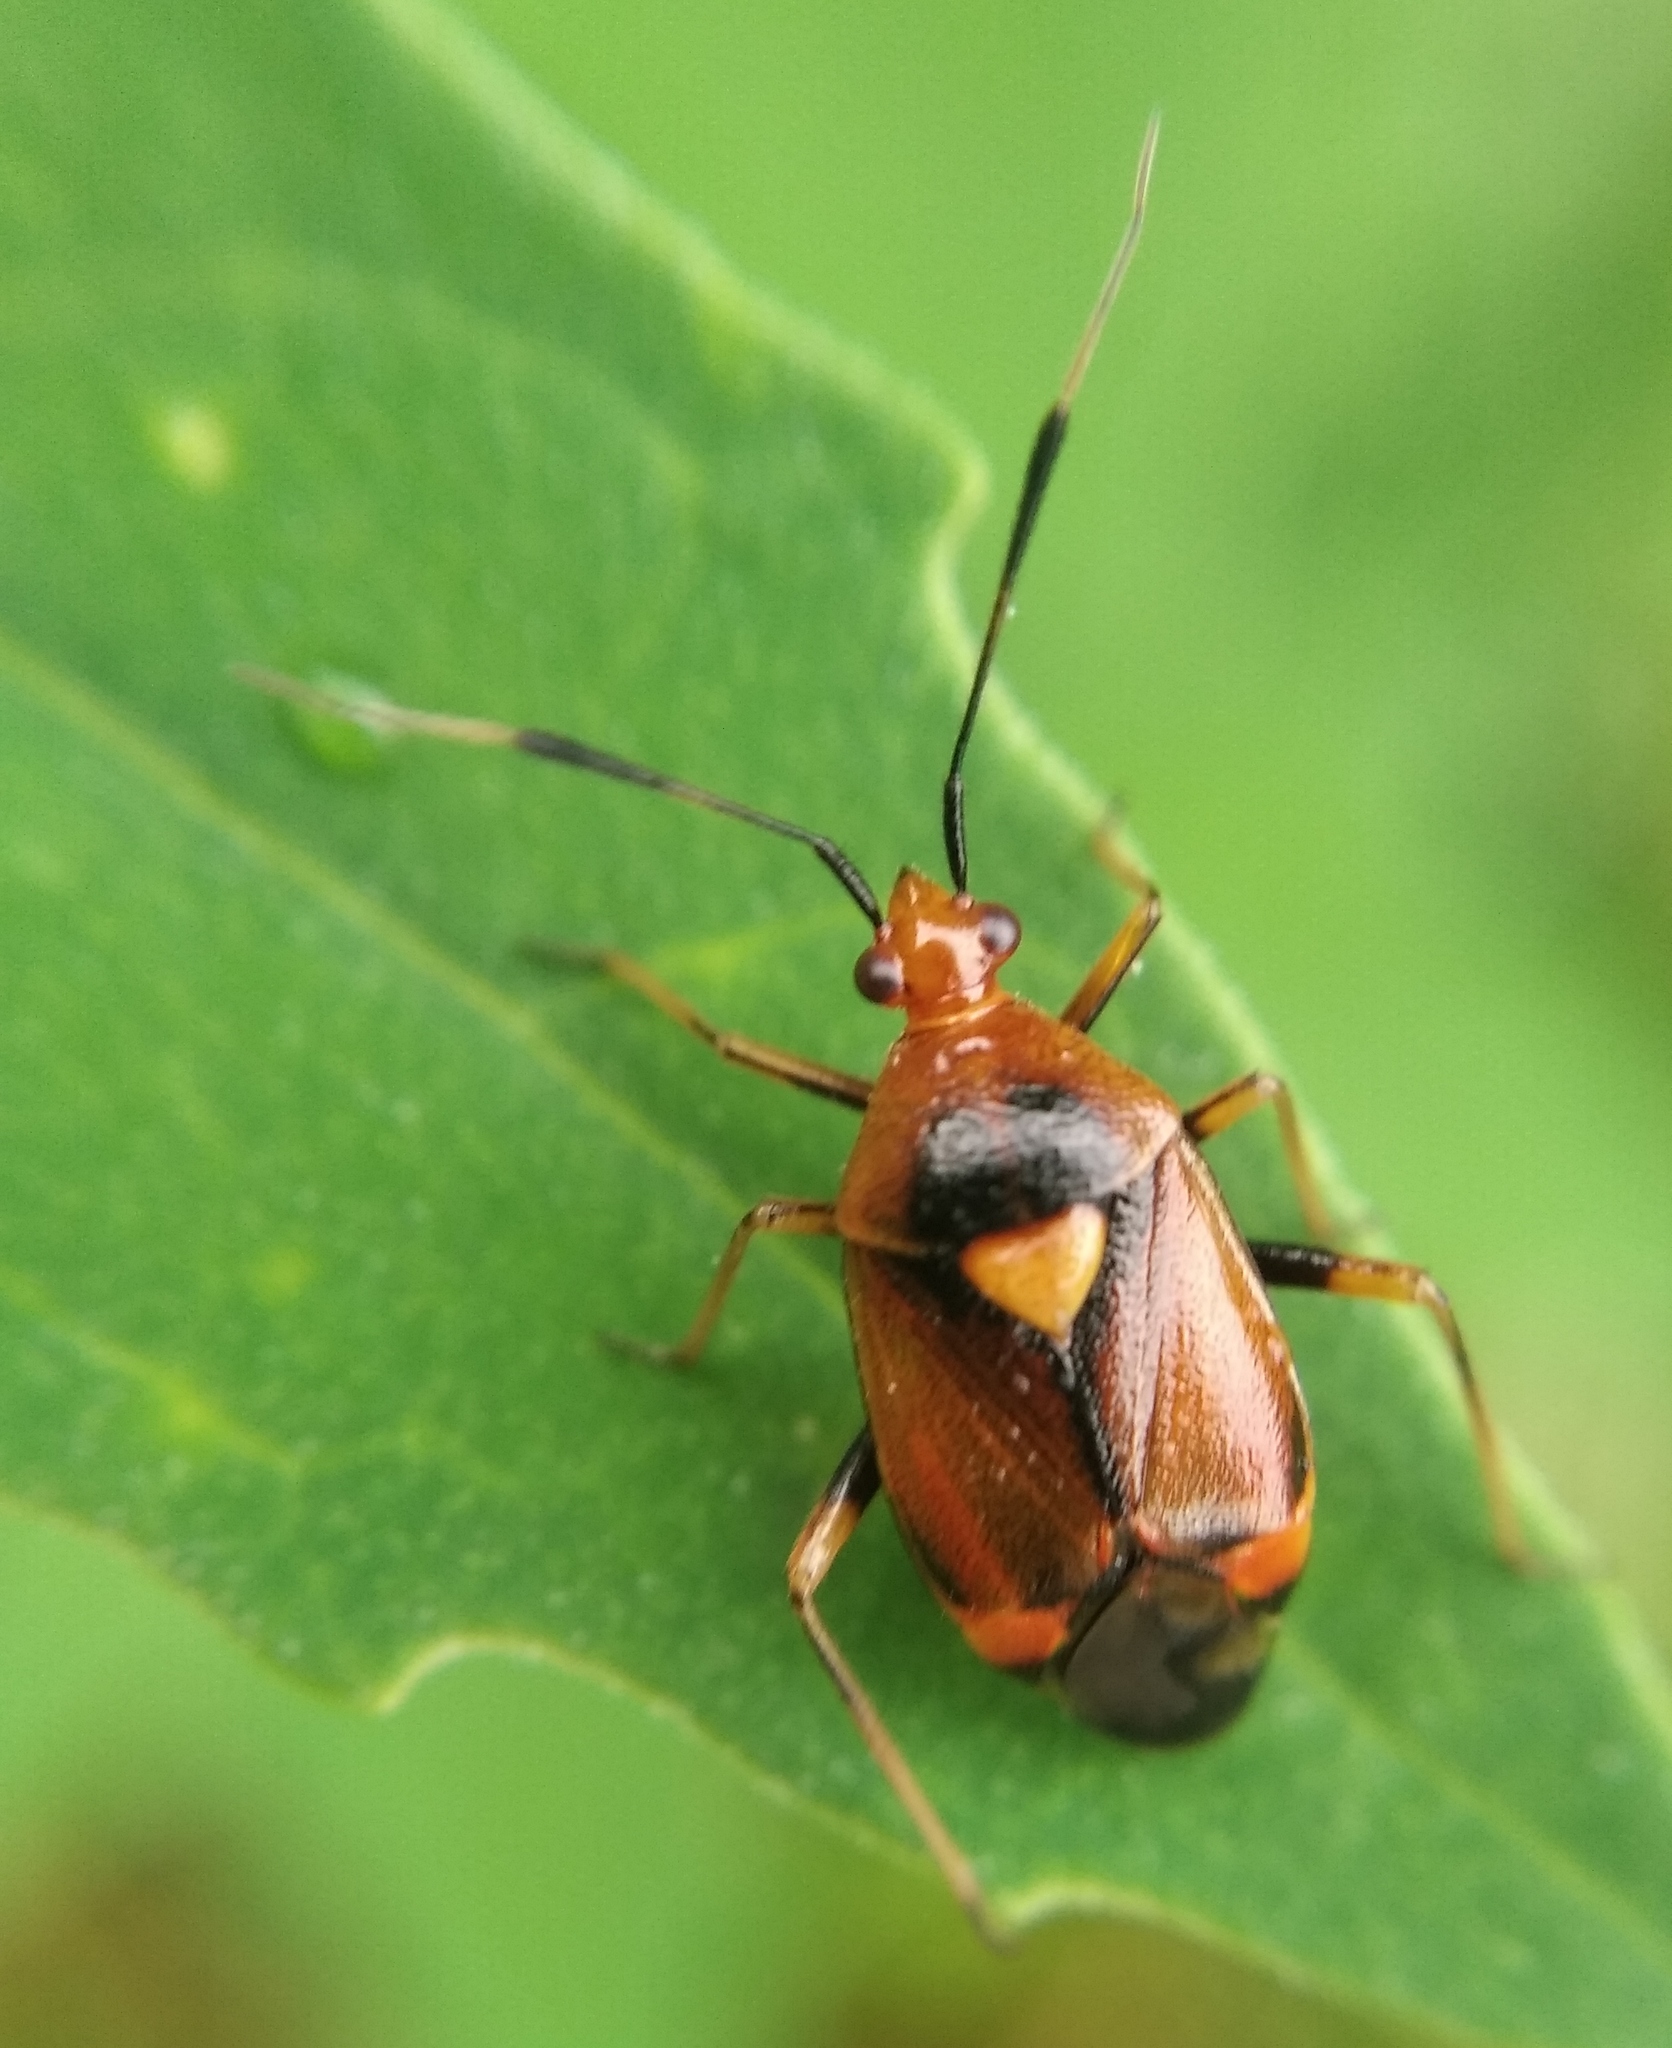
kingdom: Animalia
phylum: Arthropoda
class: Insecta
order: Hemiptera
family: Miridae
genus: Deraeocoris
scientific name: Deraeocoris ruber
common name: Plant bug
